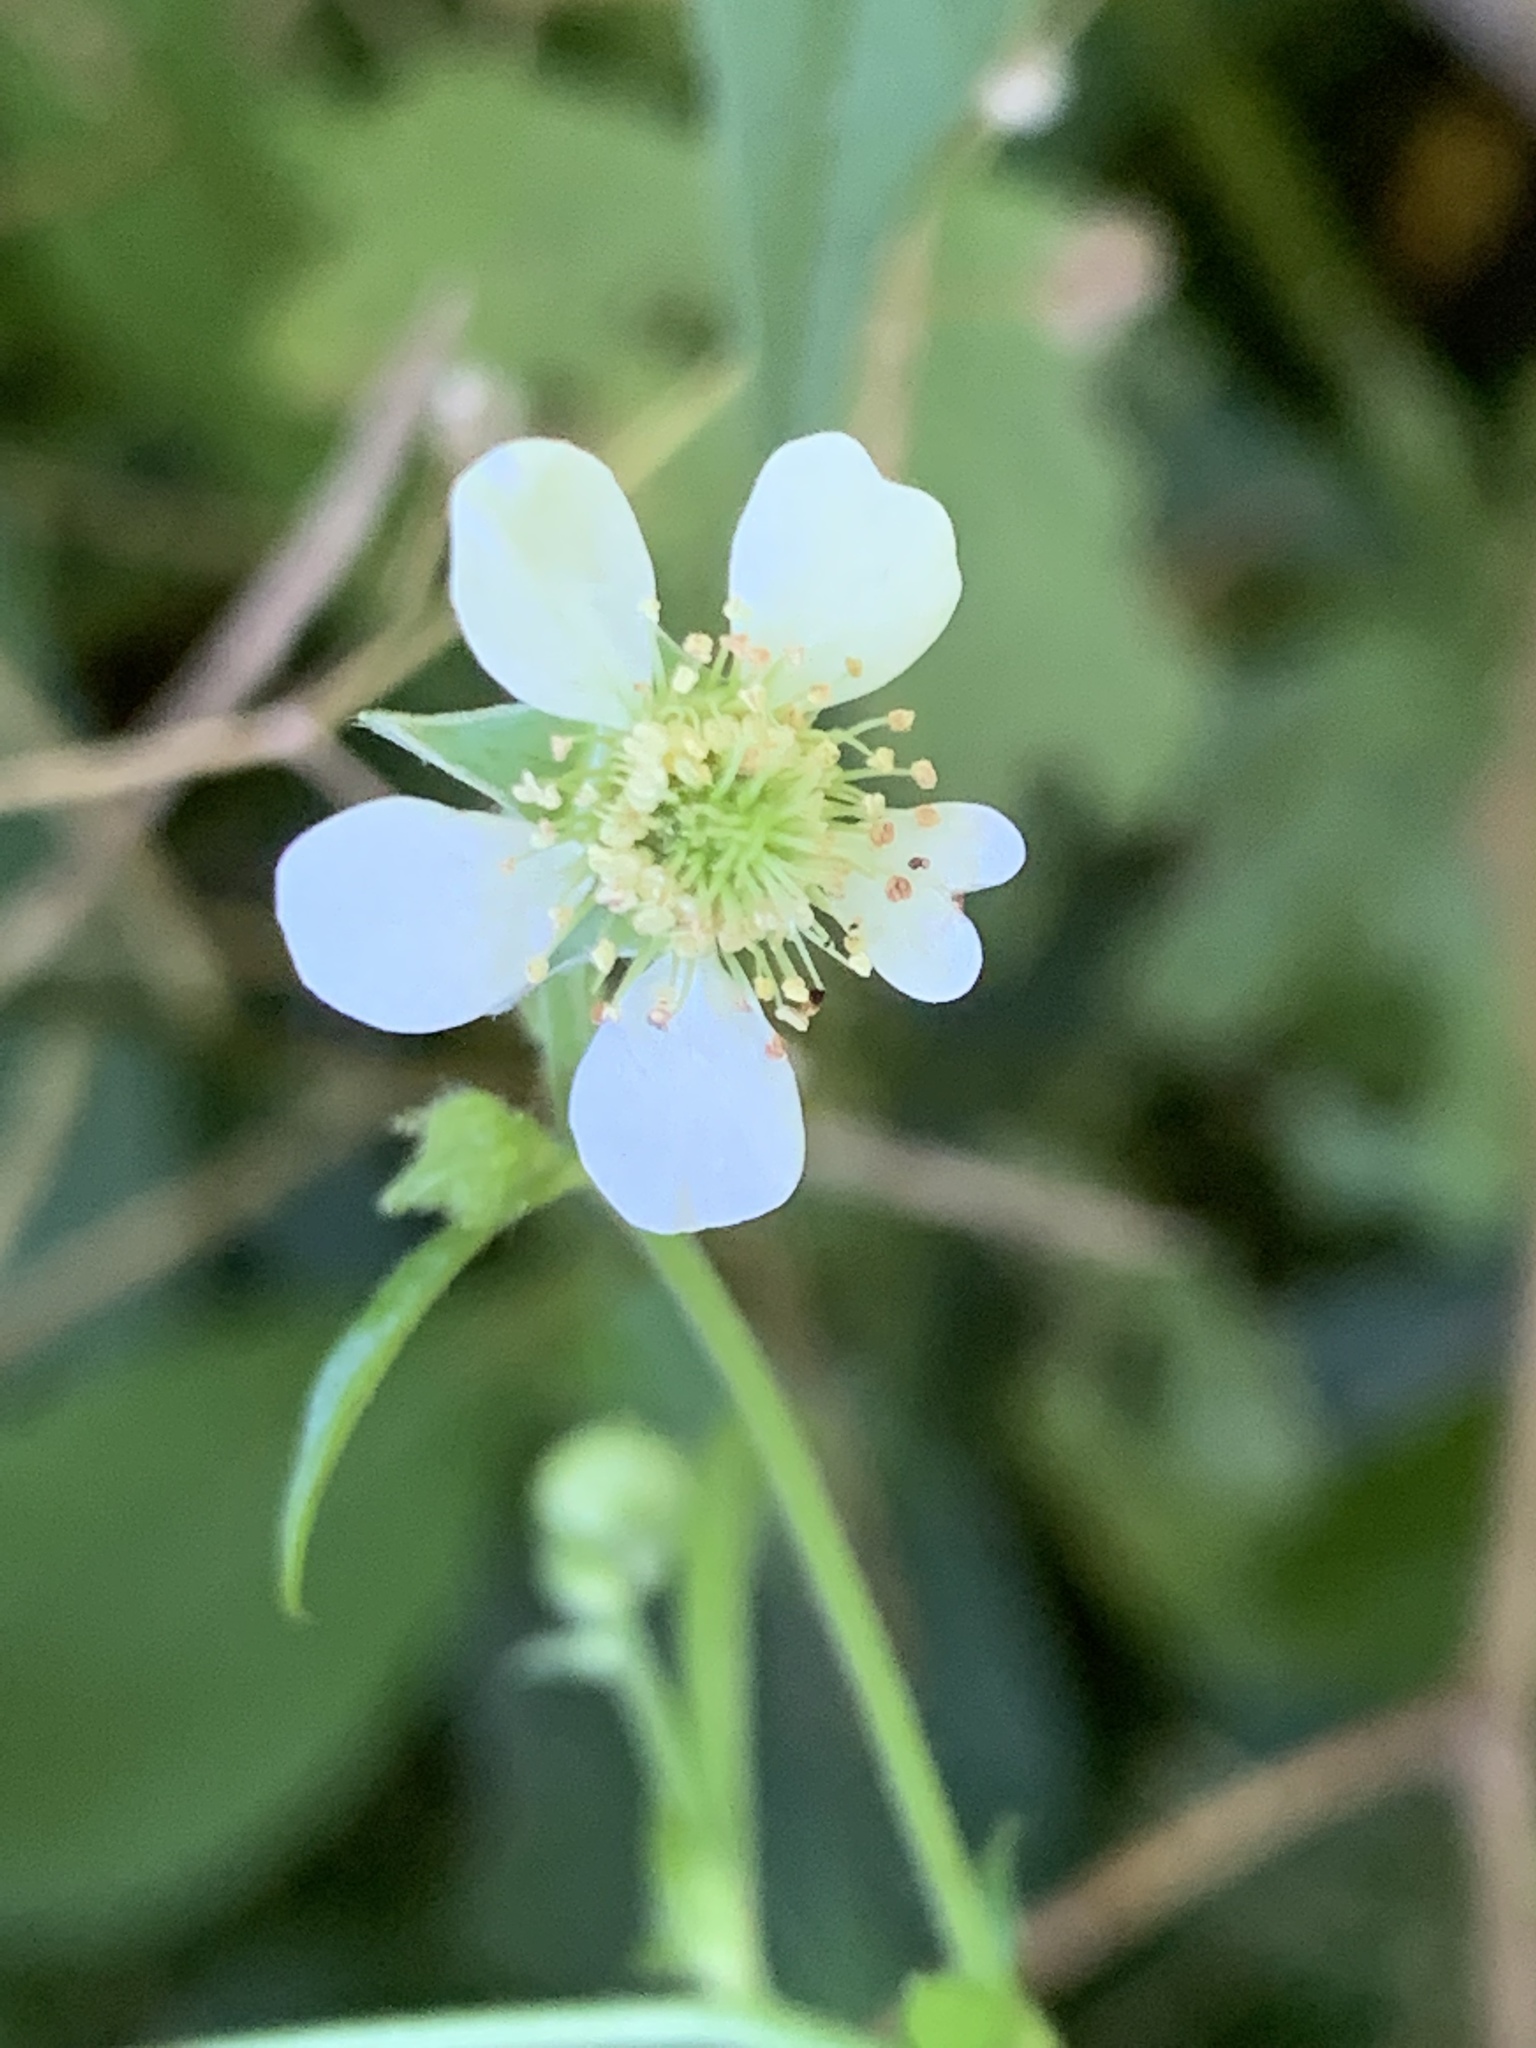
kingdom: Plantae
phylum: Tracheophyta
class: Magnoliopsida
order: Rosales
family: Rosaceae
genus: Geum
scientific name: Geum canadense
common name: White avens
